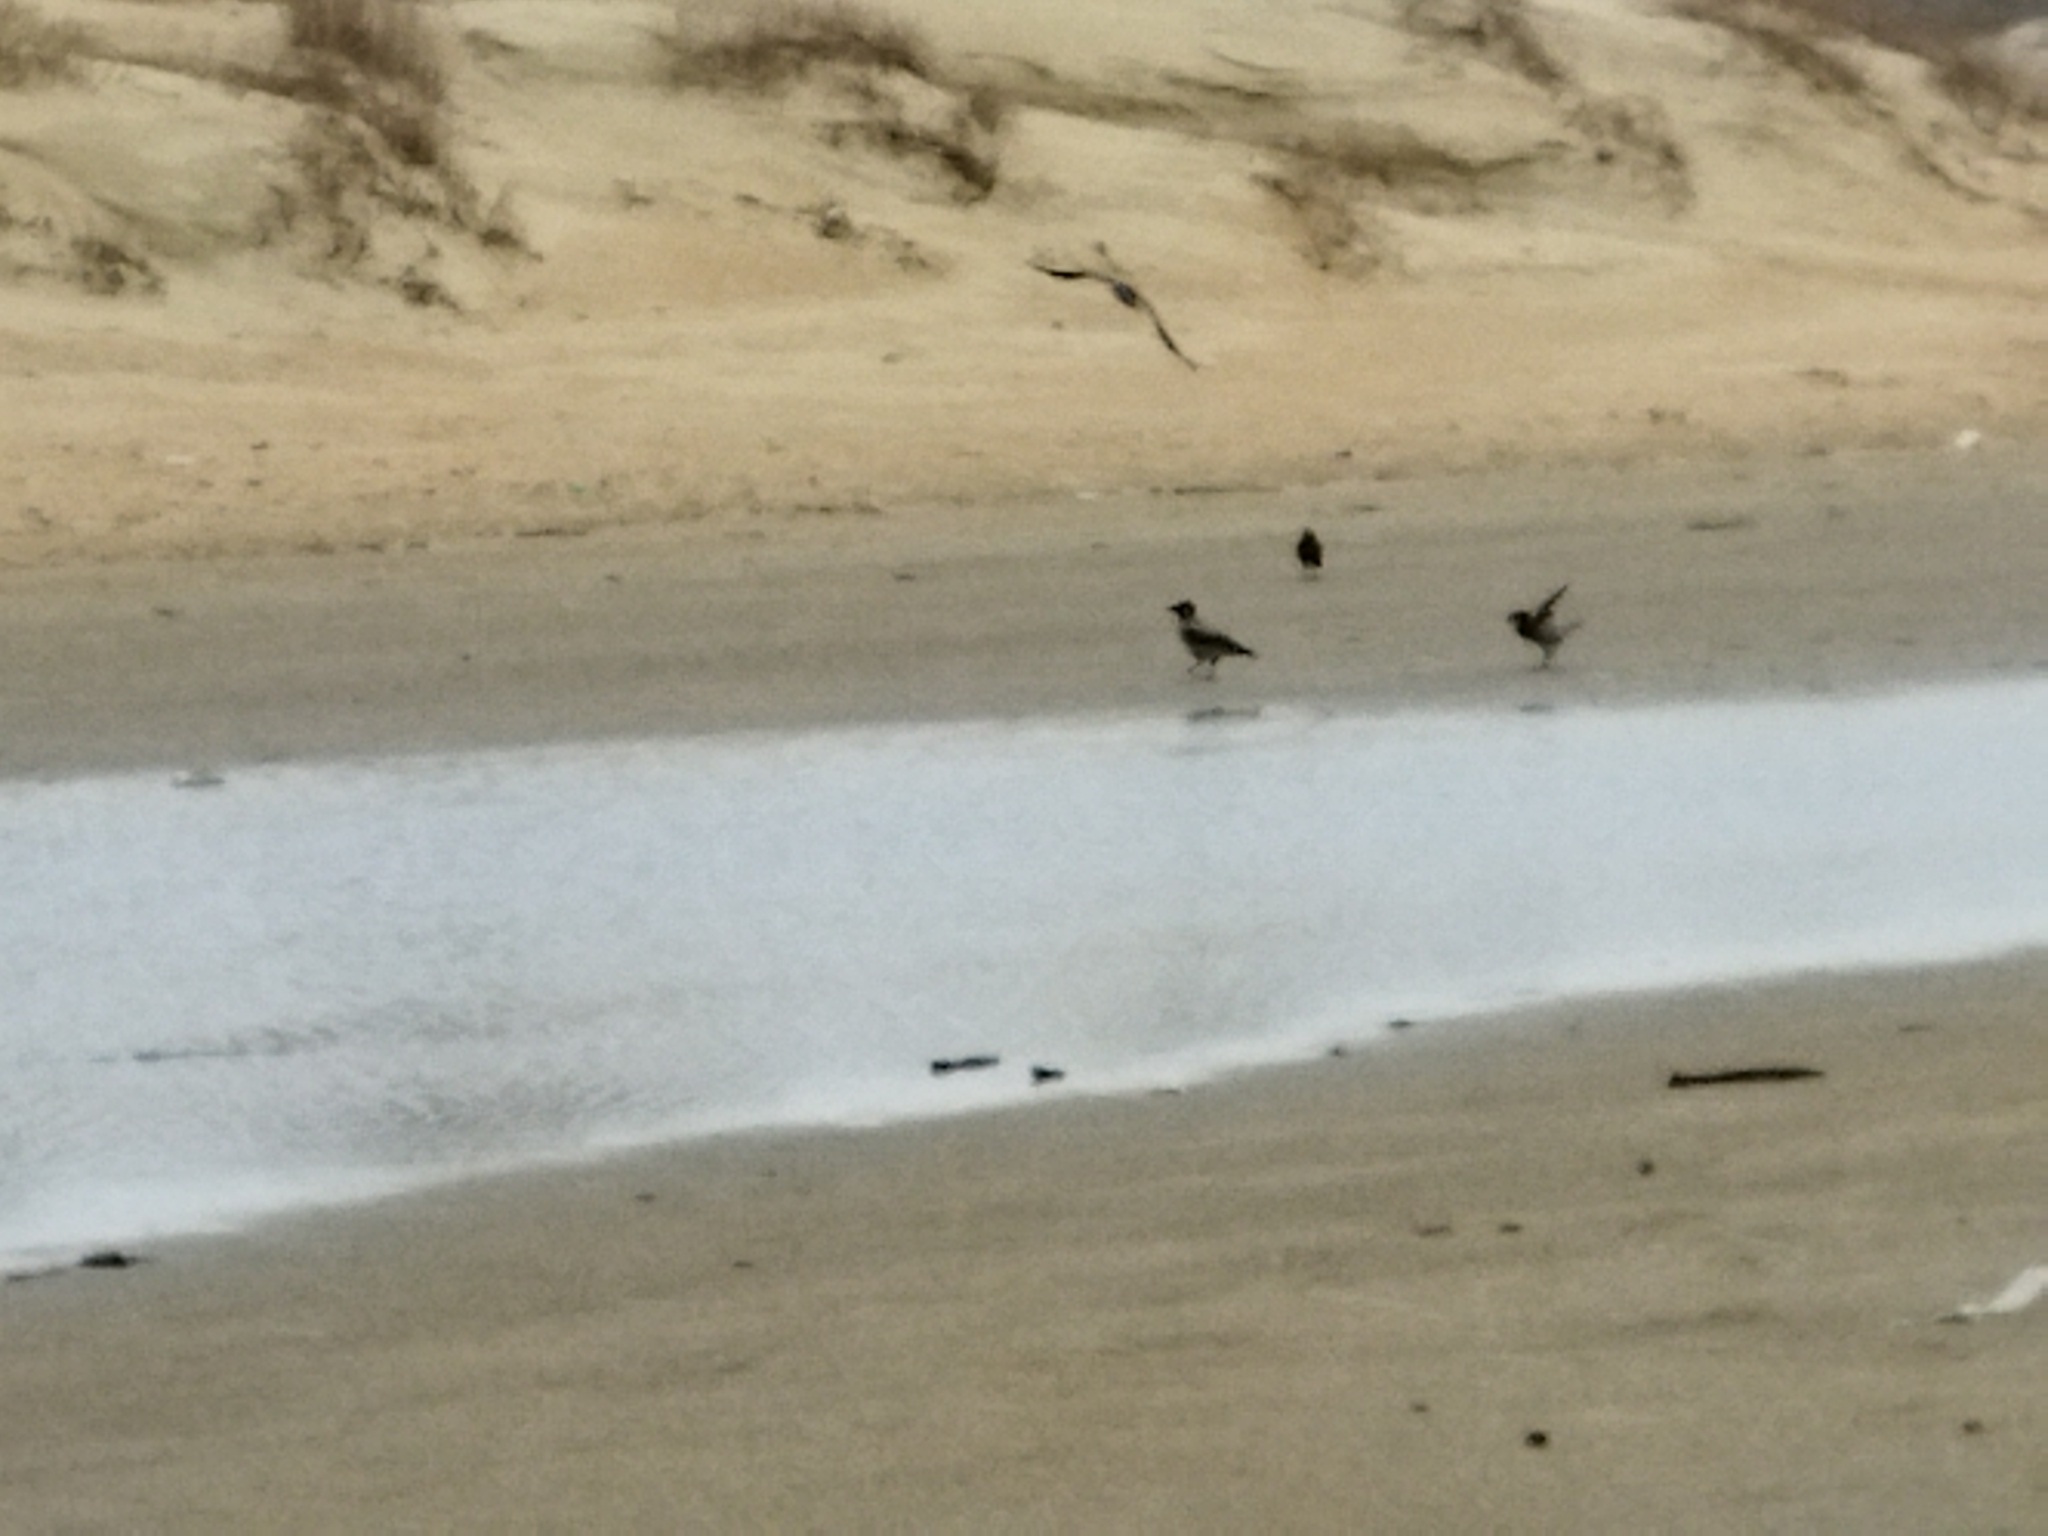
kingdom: Animalia
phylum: Chordata
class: Aves
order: Passeriformes
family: Corvidae
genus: Corvus
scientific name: Corvus cornix
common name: Hooded crow
